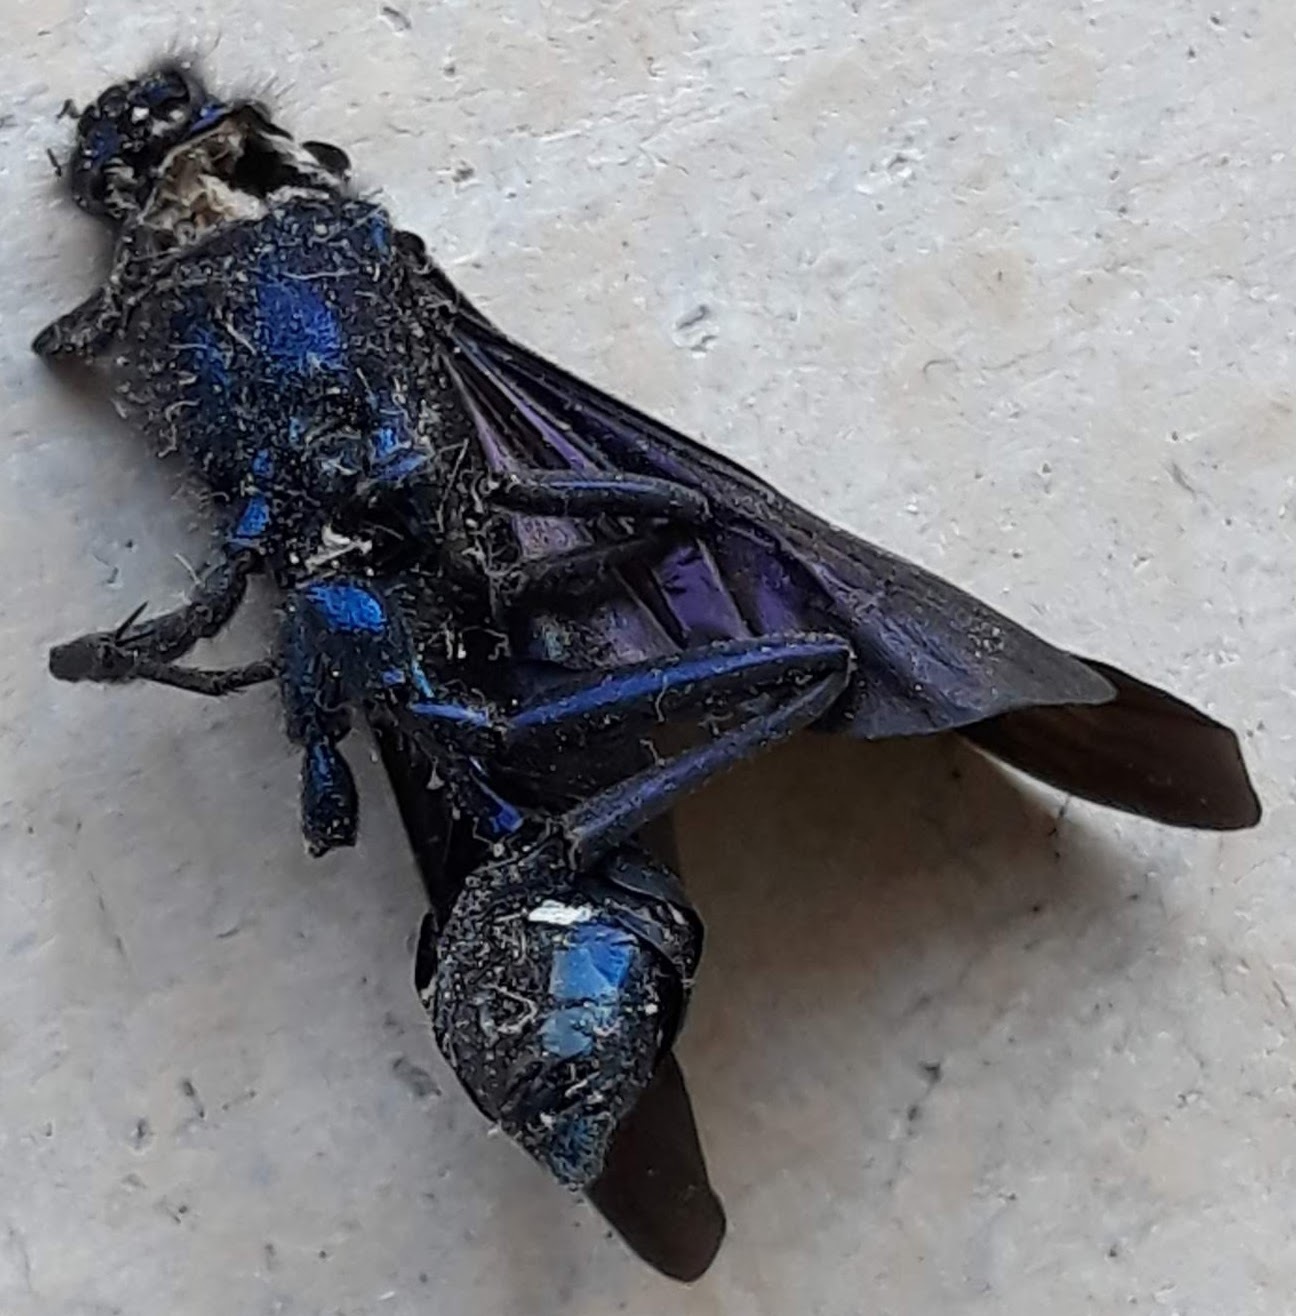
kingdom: Animalia
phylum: Arthropoda
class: Insecta
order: Hymenoptera
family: Sphecidae
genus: Chalybion
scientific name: Chalybion californicum
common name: Mud dauber
